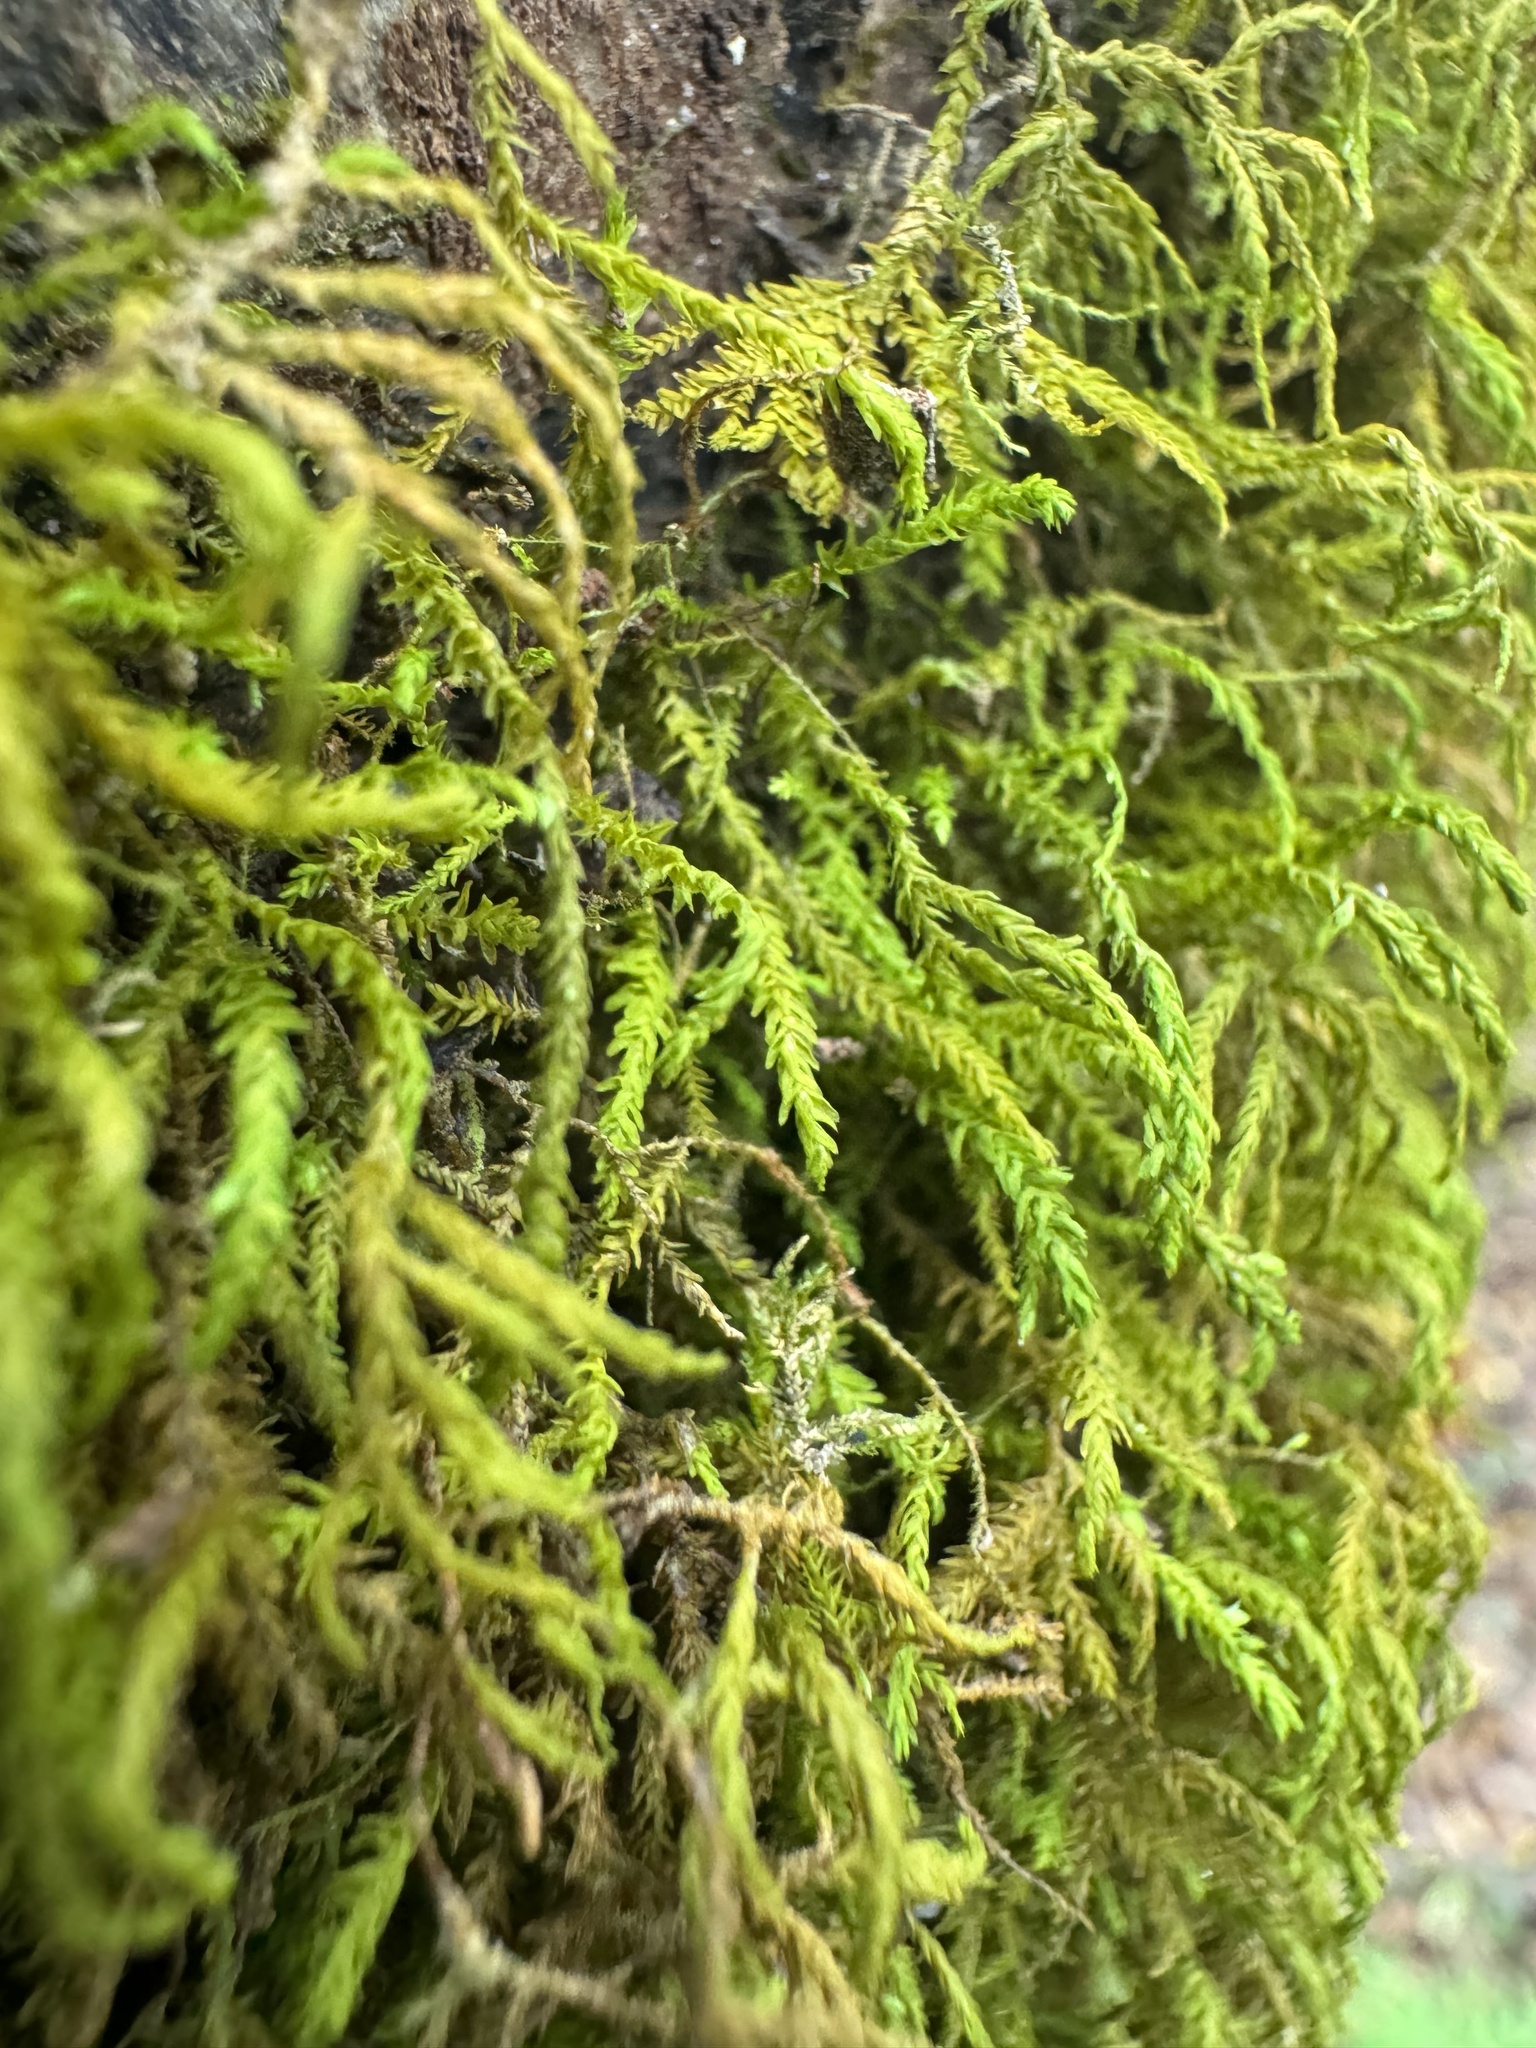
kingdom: Plantae
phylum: Bryophyta
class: Bryopsida
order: Hypnales
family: Neckeraceae
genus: Pseudanomodon
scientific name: Pseudanomodon attenuatus
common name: Tree-skirt moss
